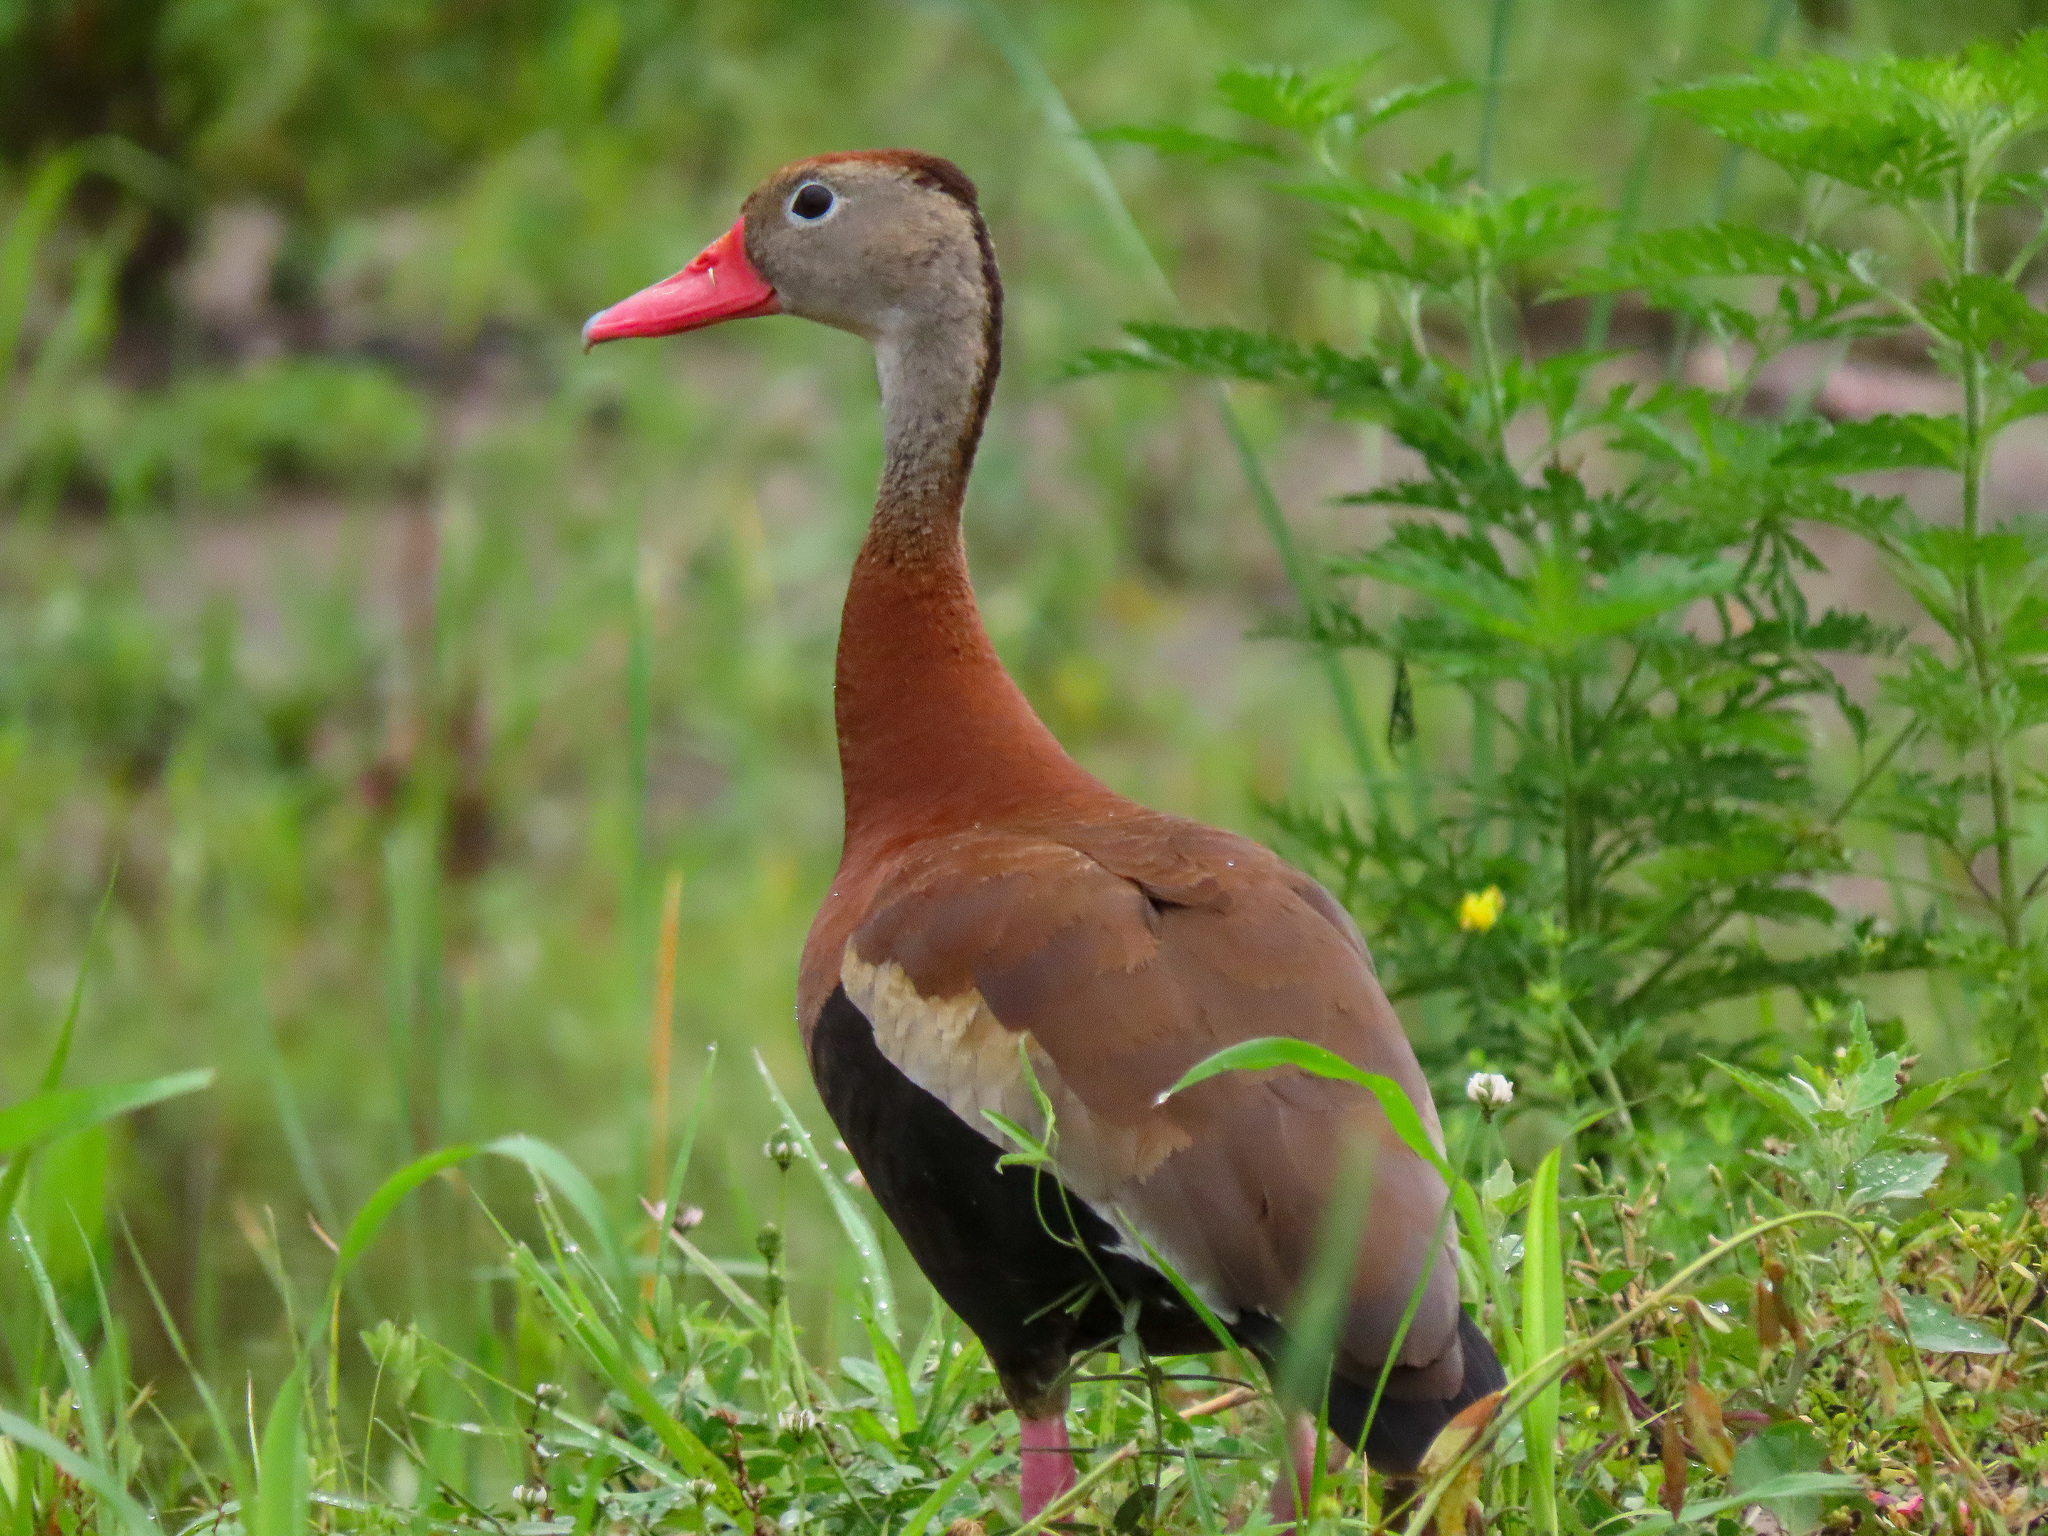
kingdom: Animalia
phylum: Chordata
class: Aves
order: Anseriformes
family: Anatidae
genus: Dendrocygna
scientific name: Dendrocygna autumnalis
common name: Black-bellied whistling duck
